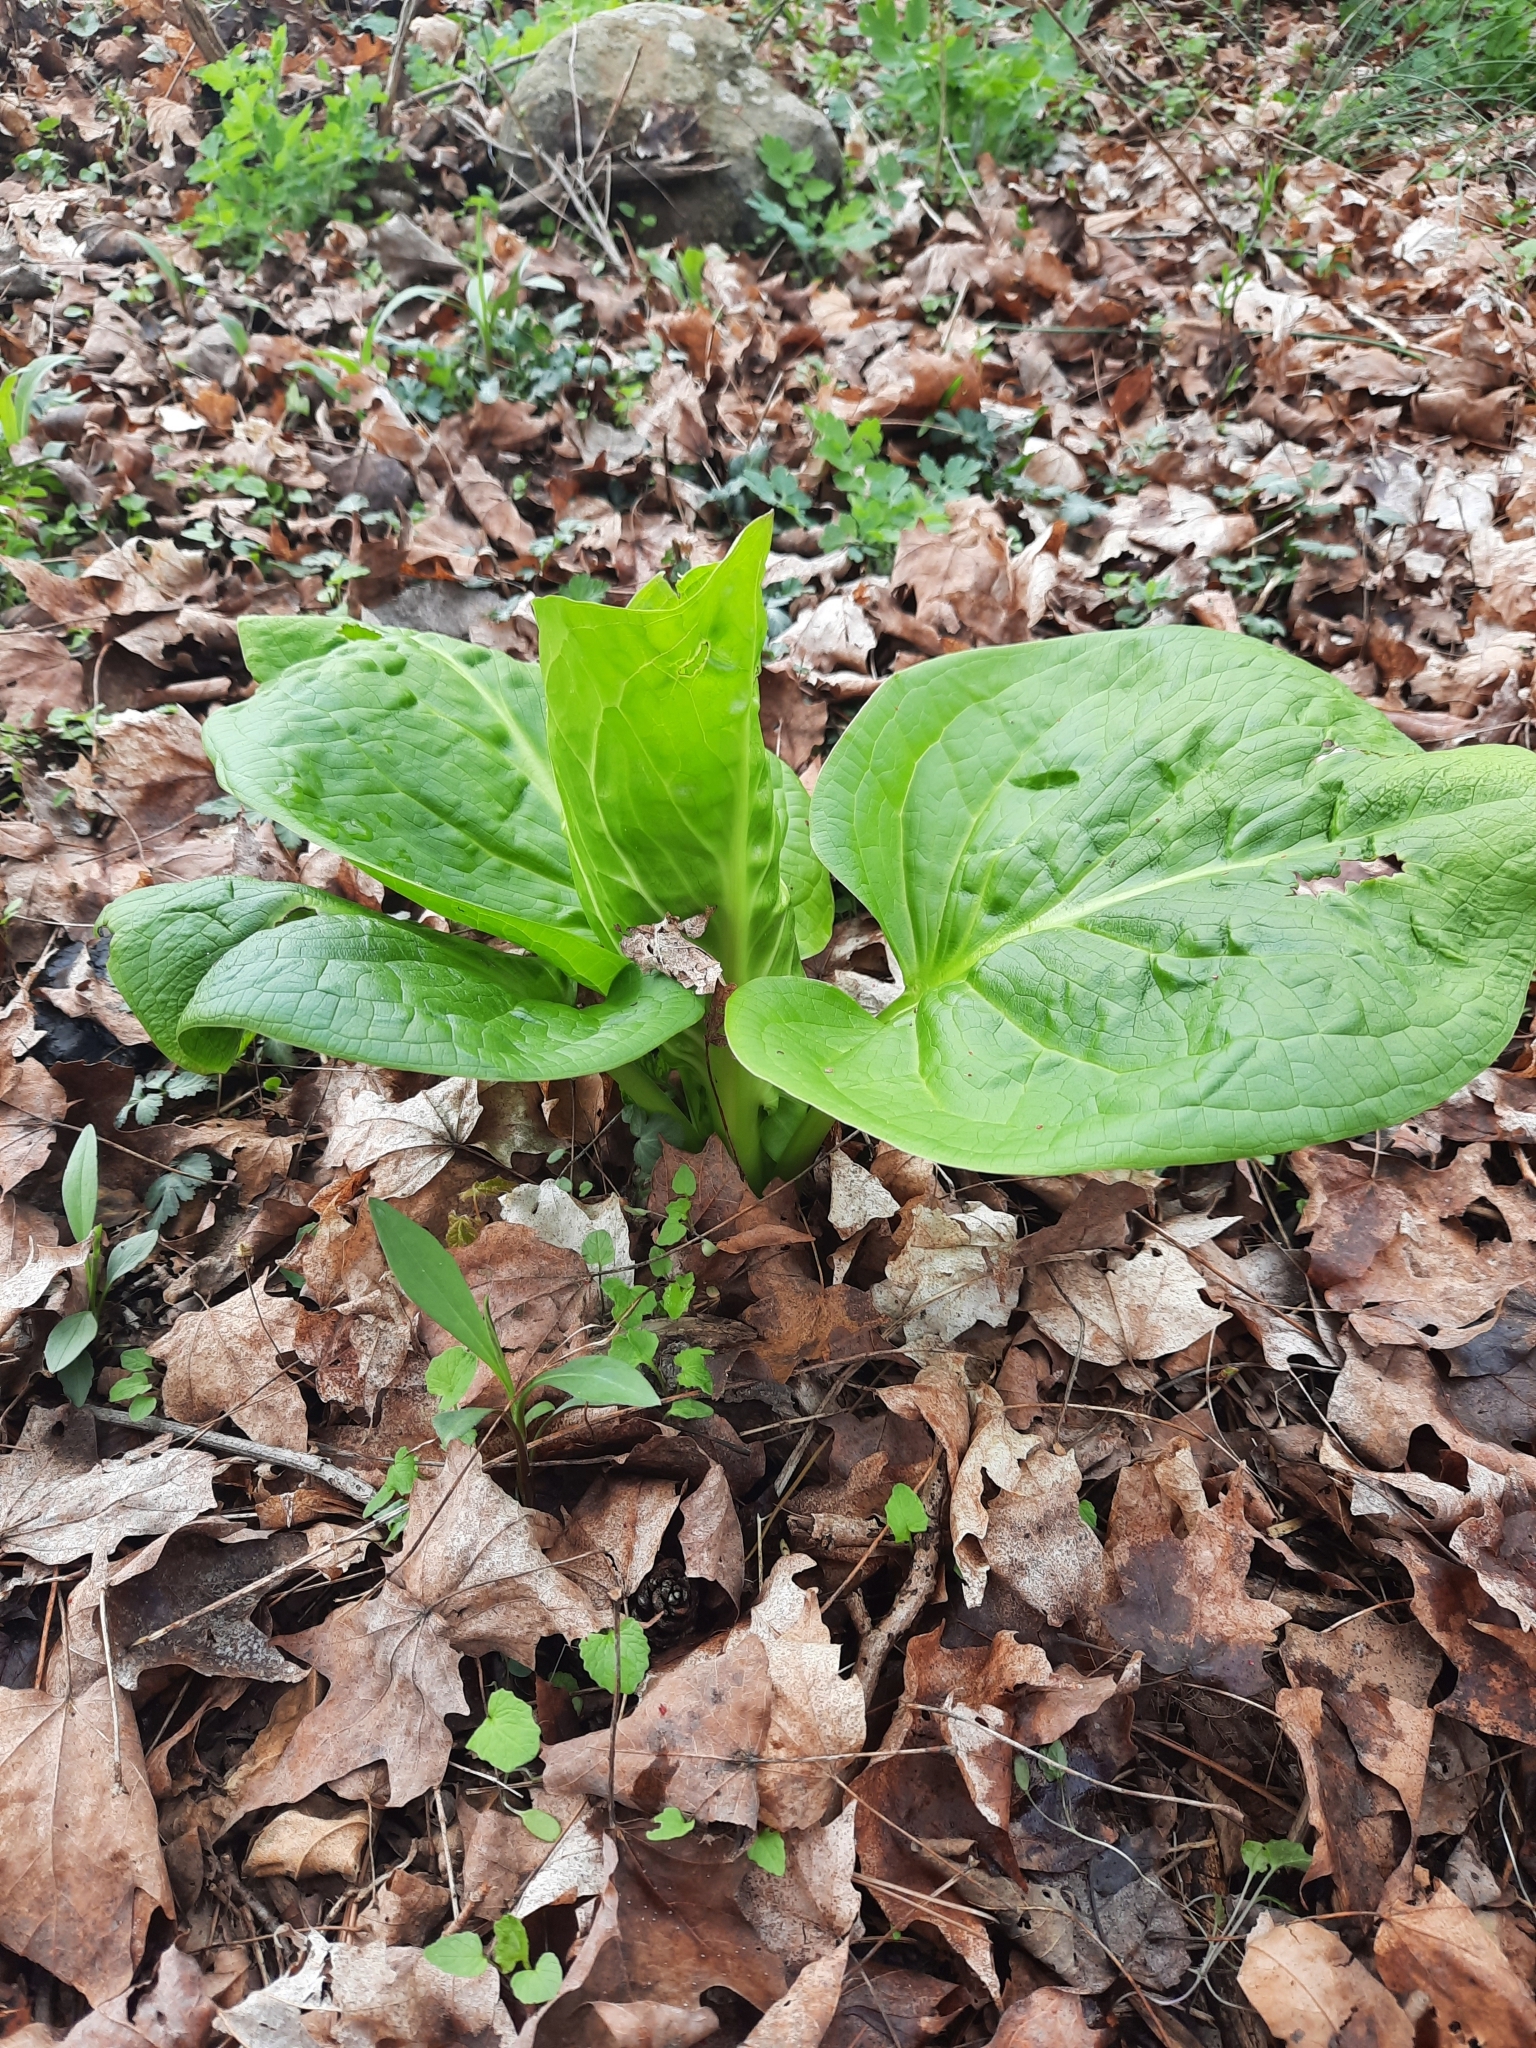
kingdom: Plantae
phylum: Tracheophyta
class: Liliopsida
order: Alismatales
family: Araceae
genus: Symplocarpus
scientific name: Symplocarpus foetidus
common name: Eastern skunk cabbage
